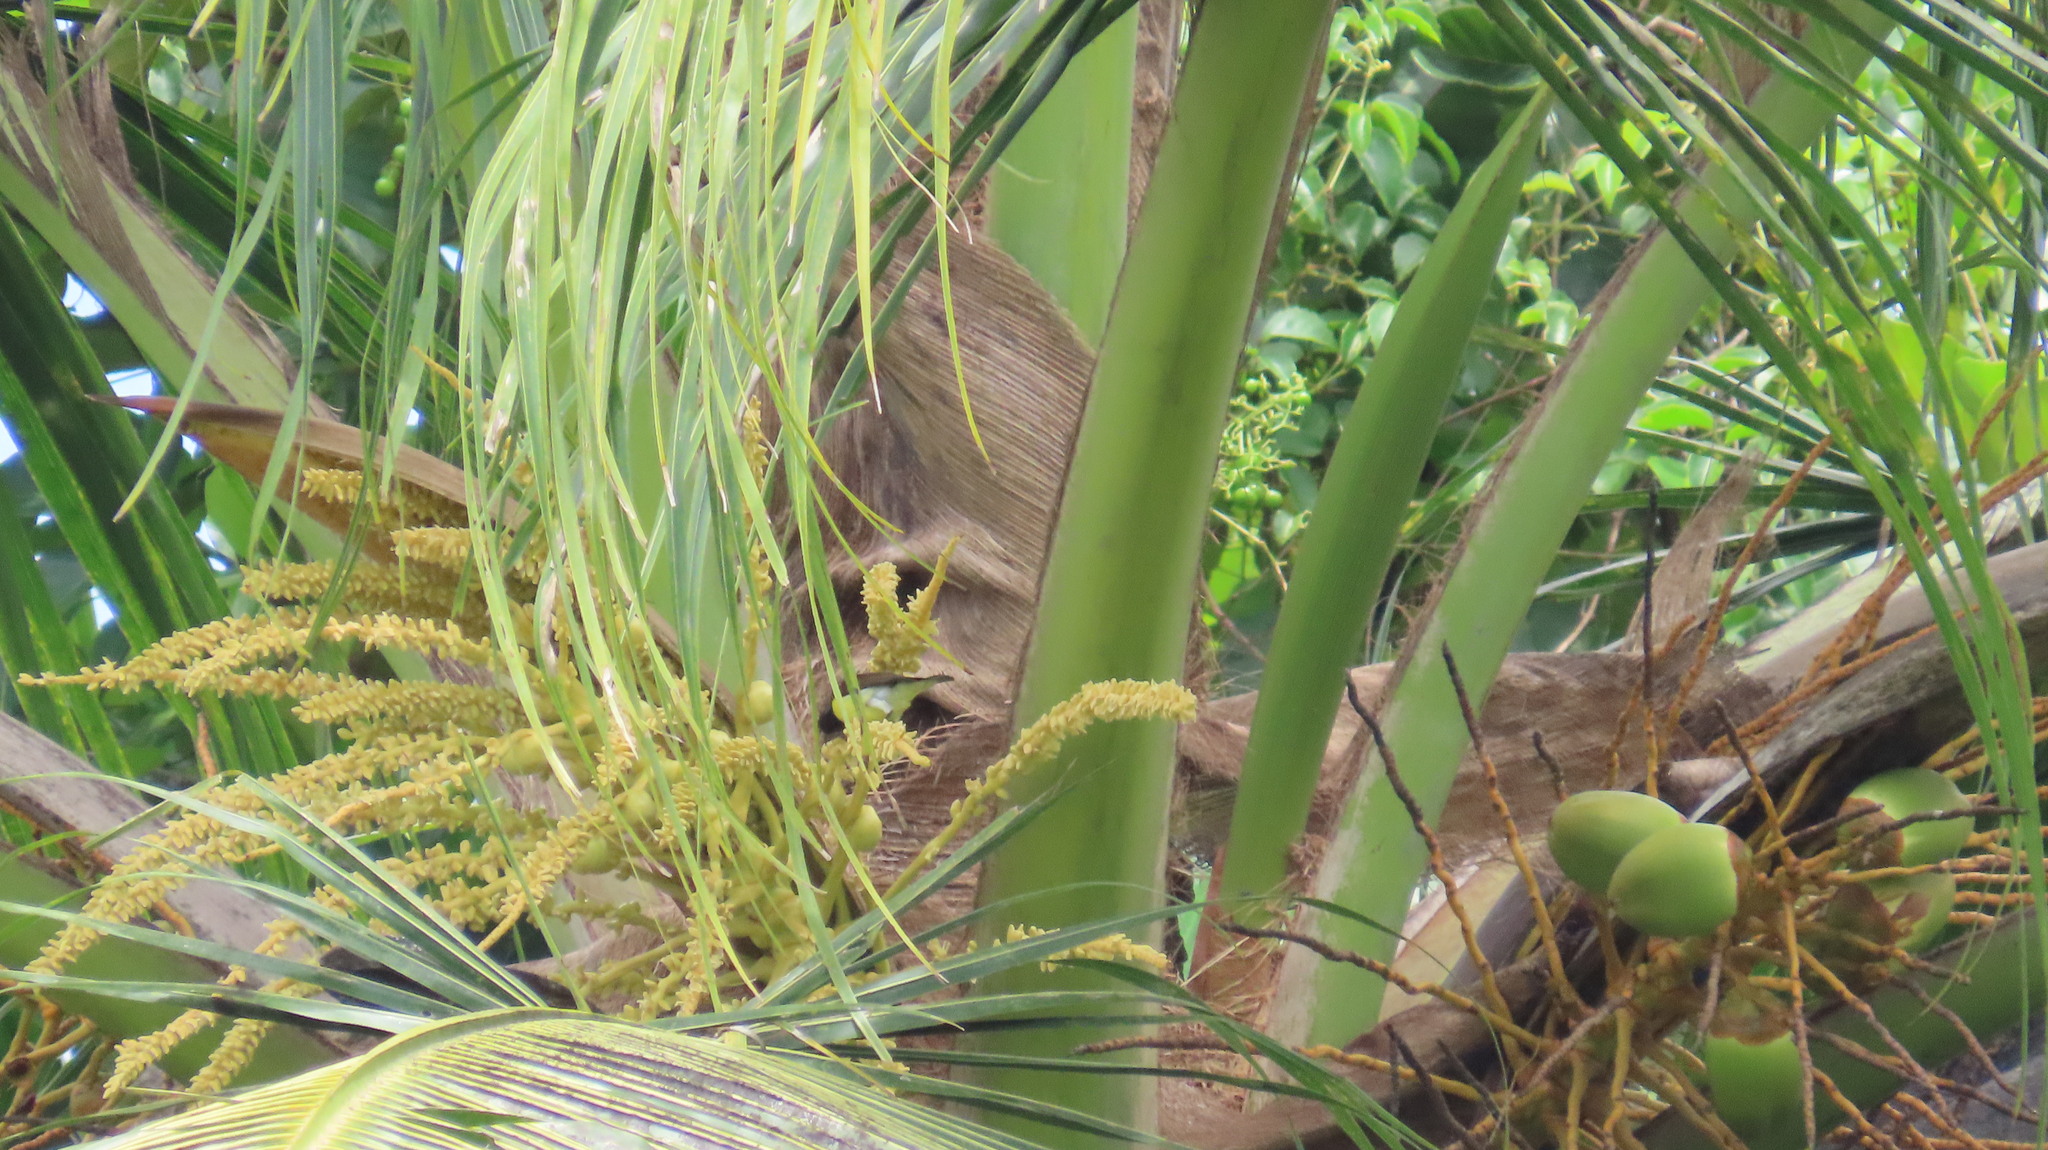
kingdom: Animalia
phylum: Chordata
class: Aves
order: Passeriformes
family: Nectariniidae
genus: Leptocoma
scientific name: Leptocoma zeylonica
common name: Purple-rumped sunbird
